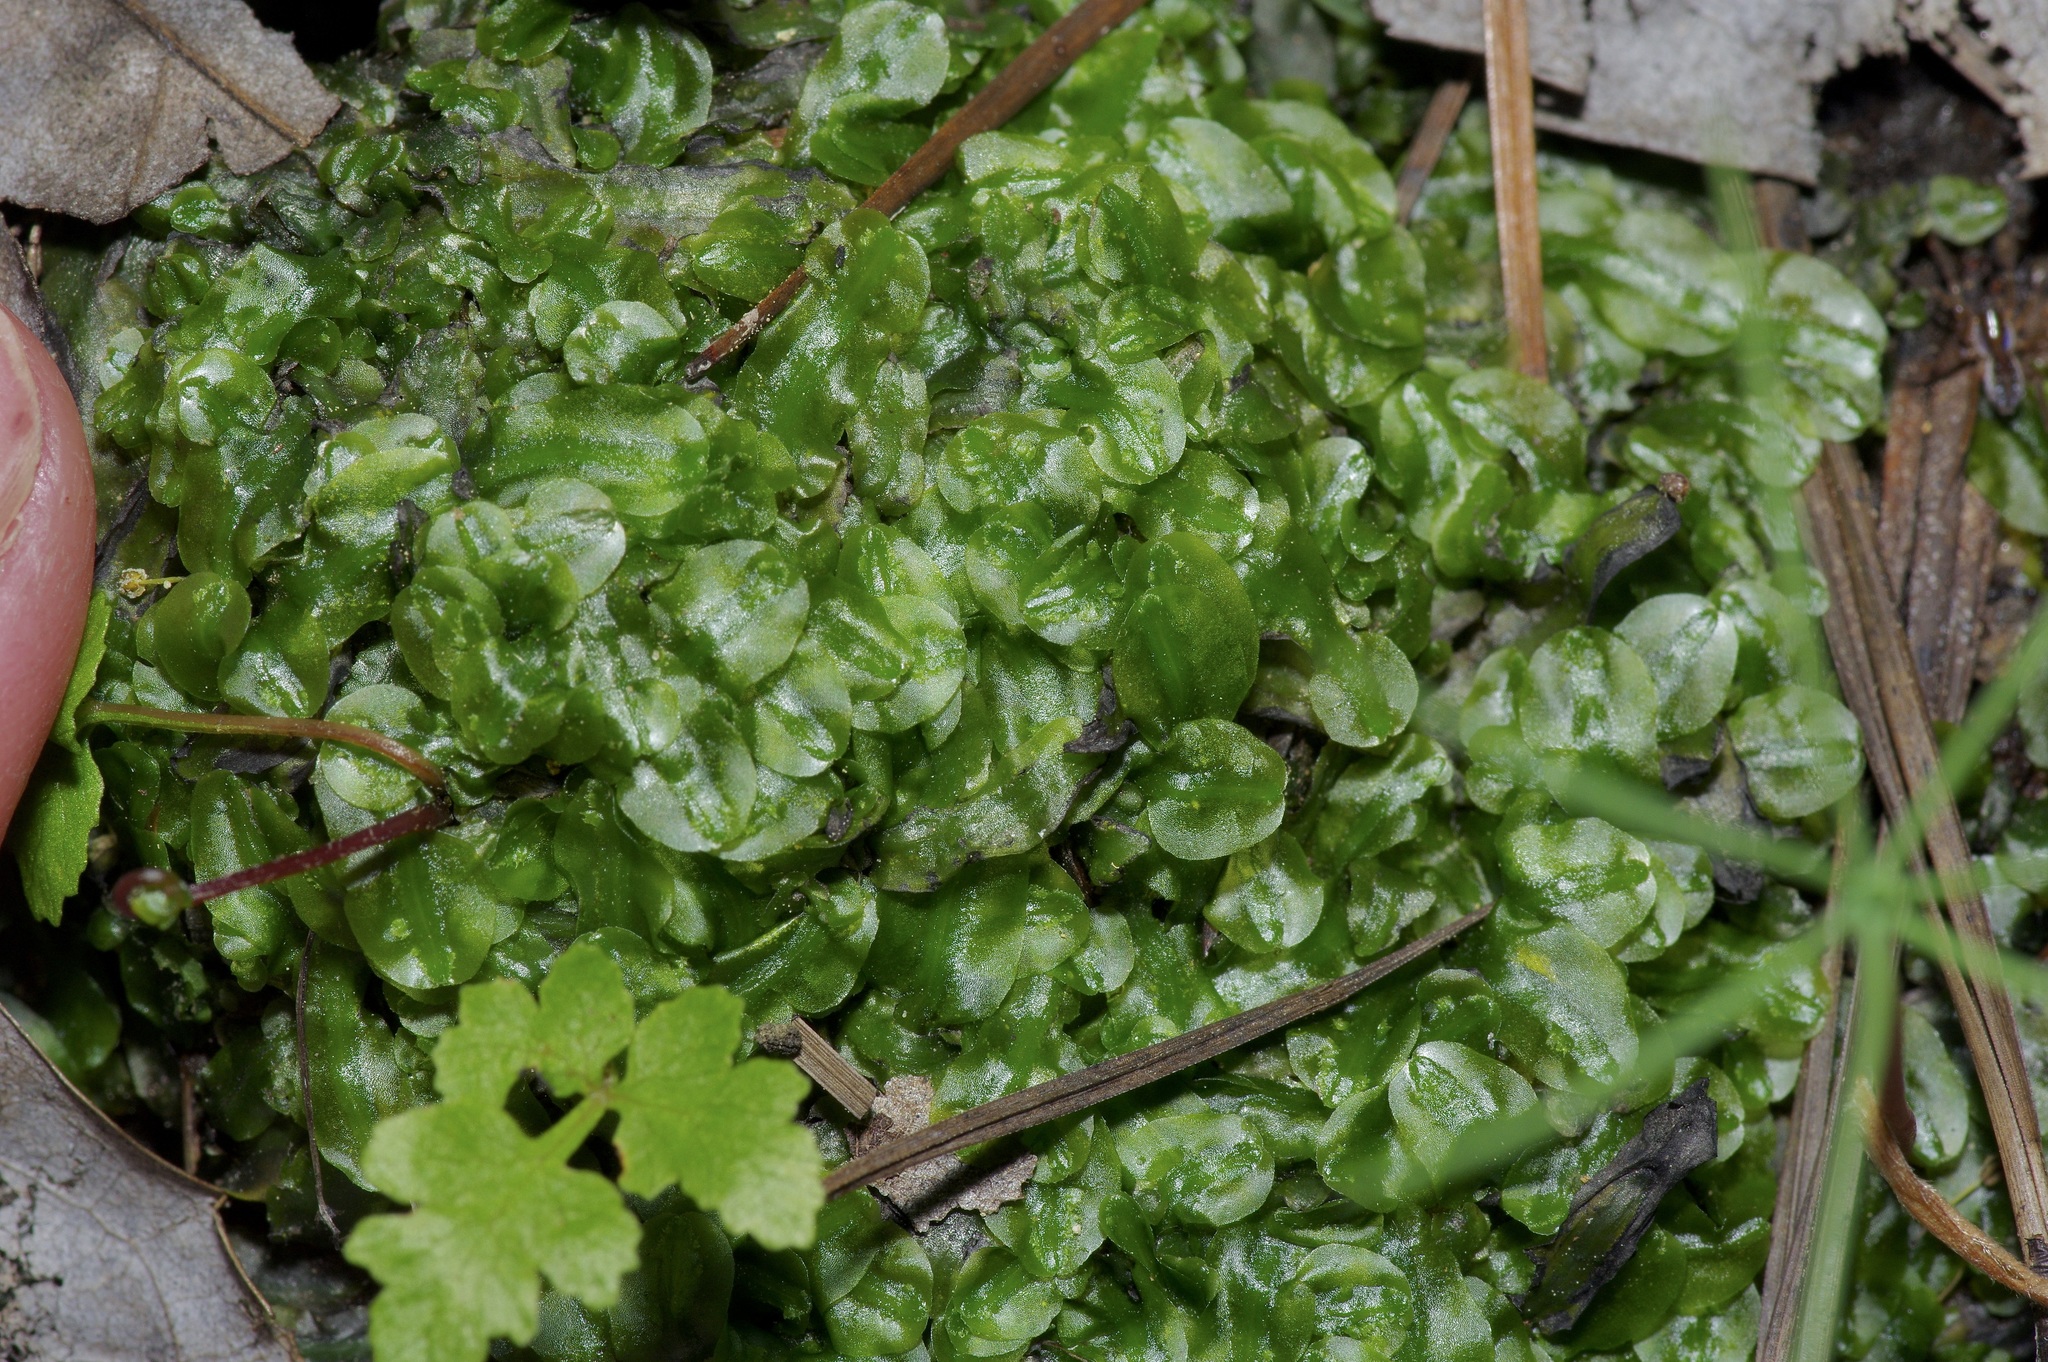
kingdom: Plantae
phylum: Marchantiophyta
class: Jungermanniopsida
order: Pallaviciniales
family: Pallaviciniaceae
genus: Pallavicinia
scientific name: Pallavicinia lyellii
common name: Veilwort
